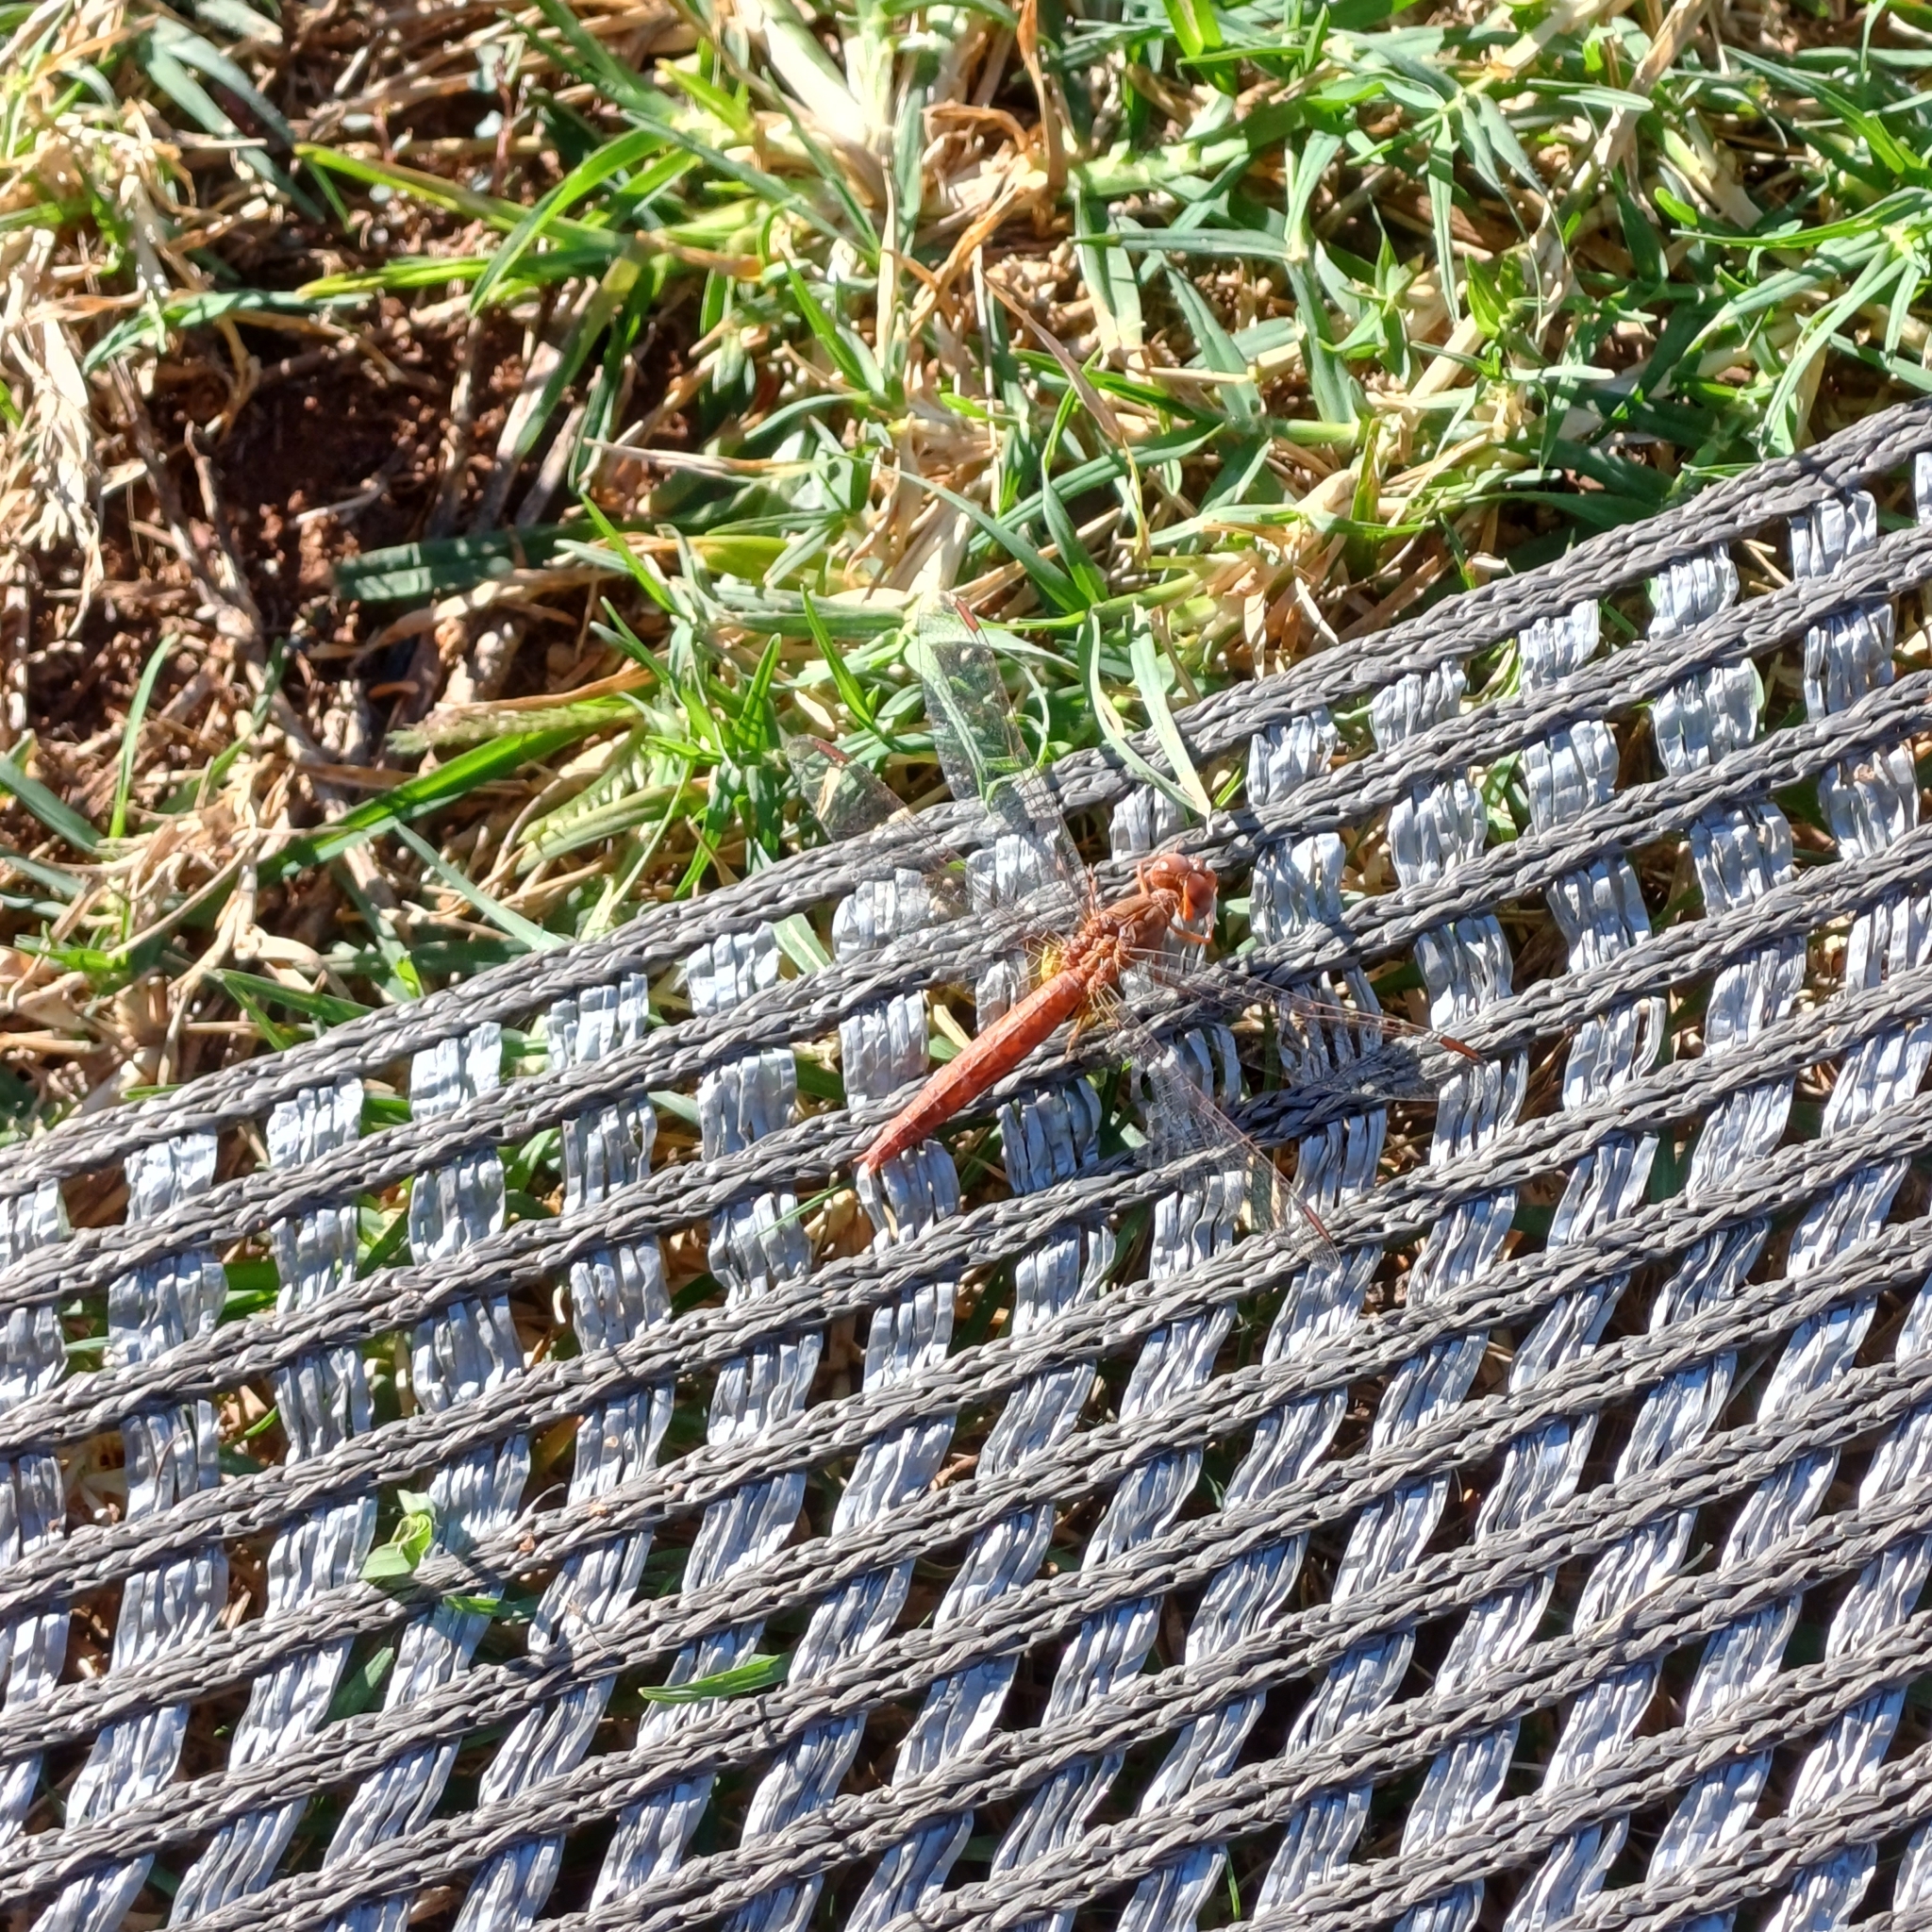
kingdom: Animalia
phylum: Arthropoda
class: Insecta
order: Odonata
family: Libellulidae
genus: Crocothemis
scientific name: Crocothemis sanguinolenta
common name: Little scarlet
